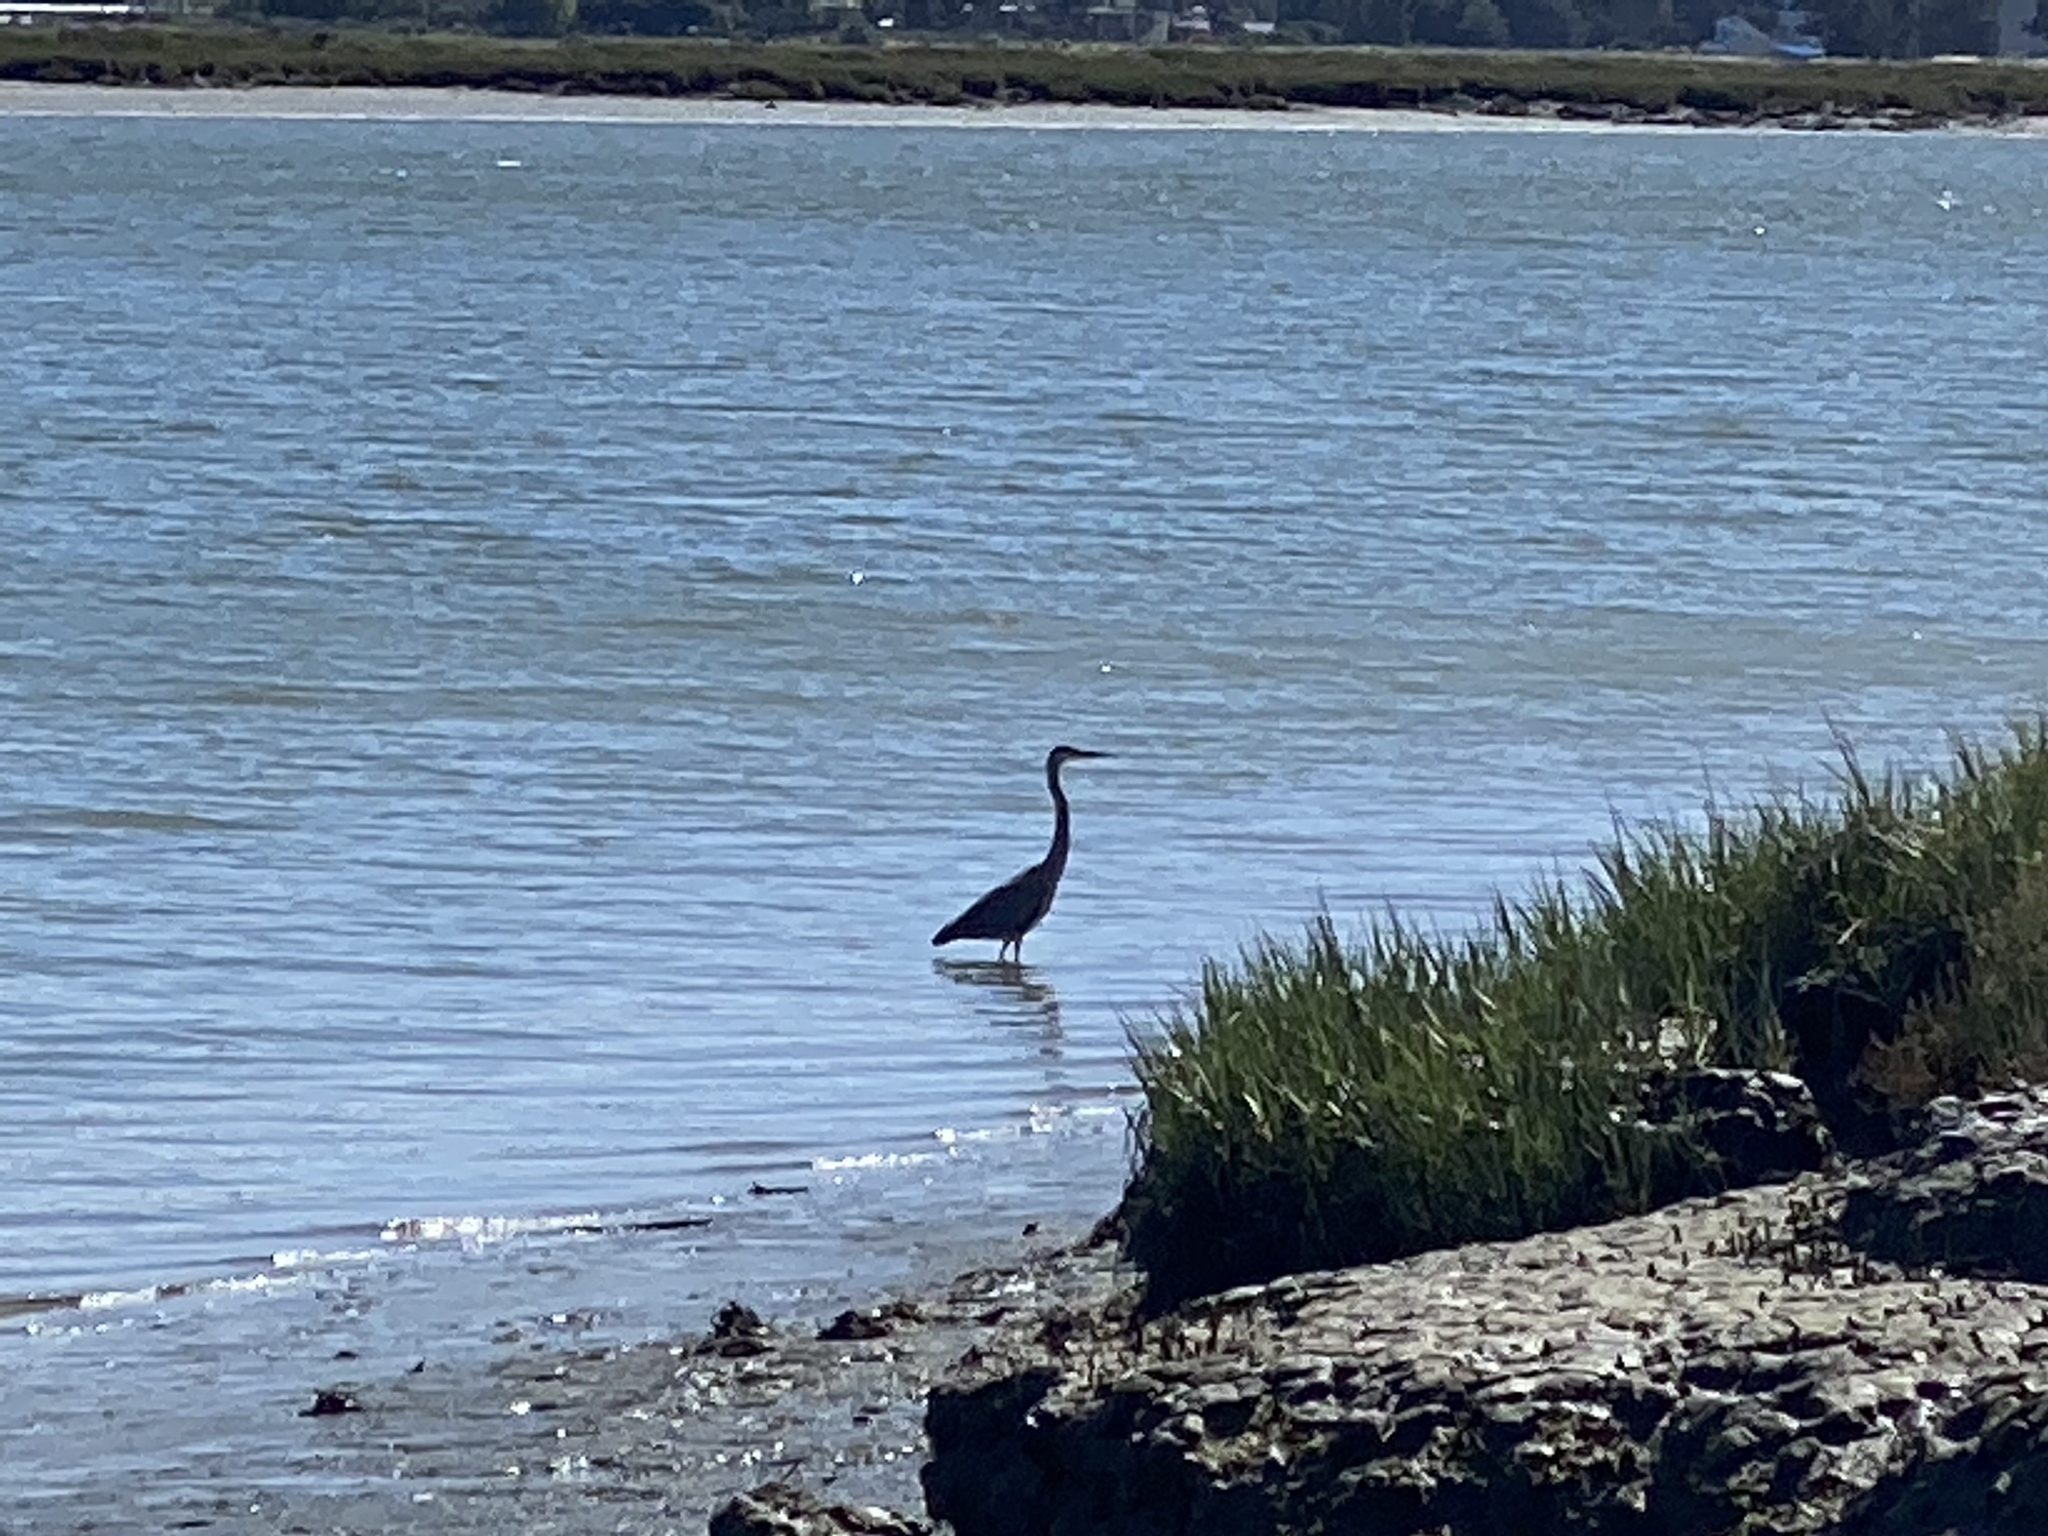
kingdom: Animalia
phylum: Chordata
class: Aves
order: Pelecaniformes
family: Ardeidae
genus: Ardea
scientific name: Ardea herodias
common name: Great blue heron
